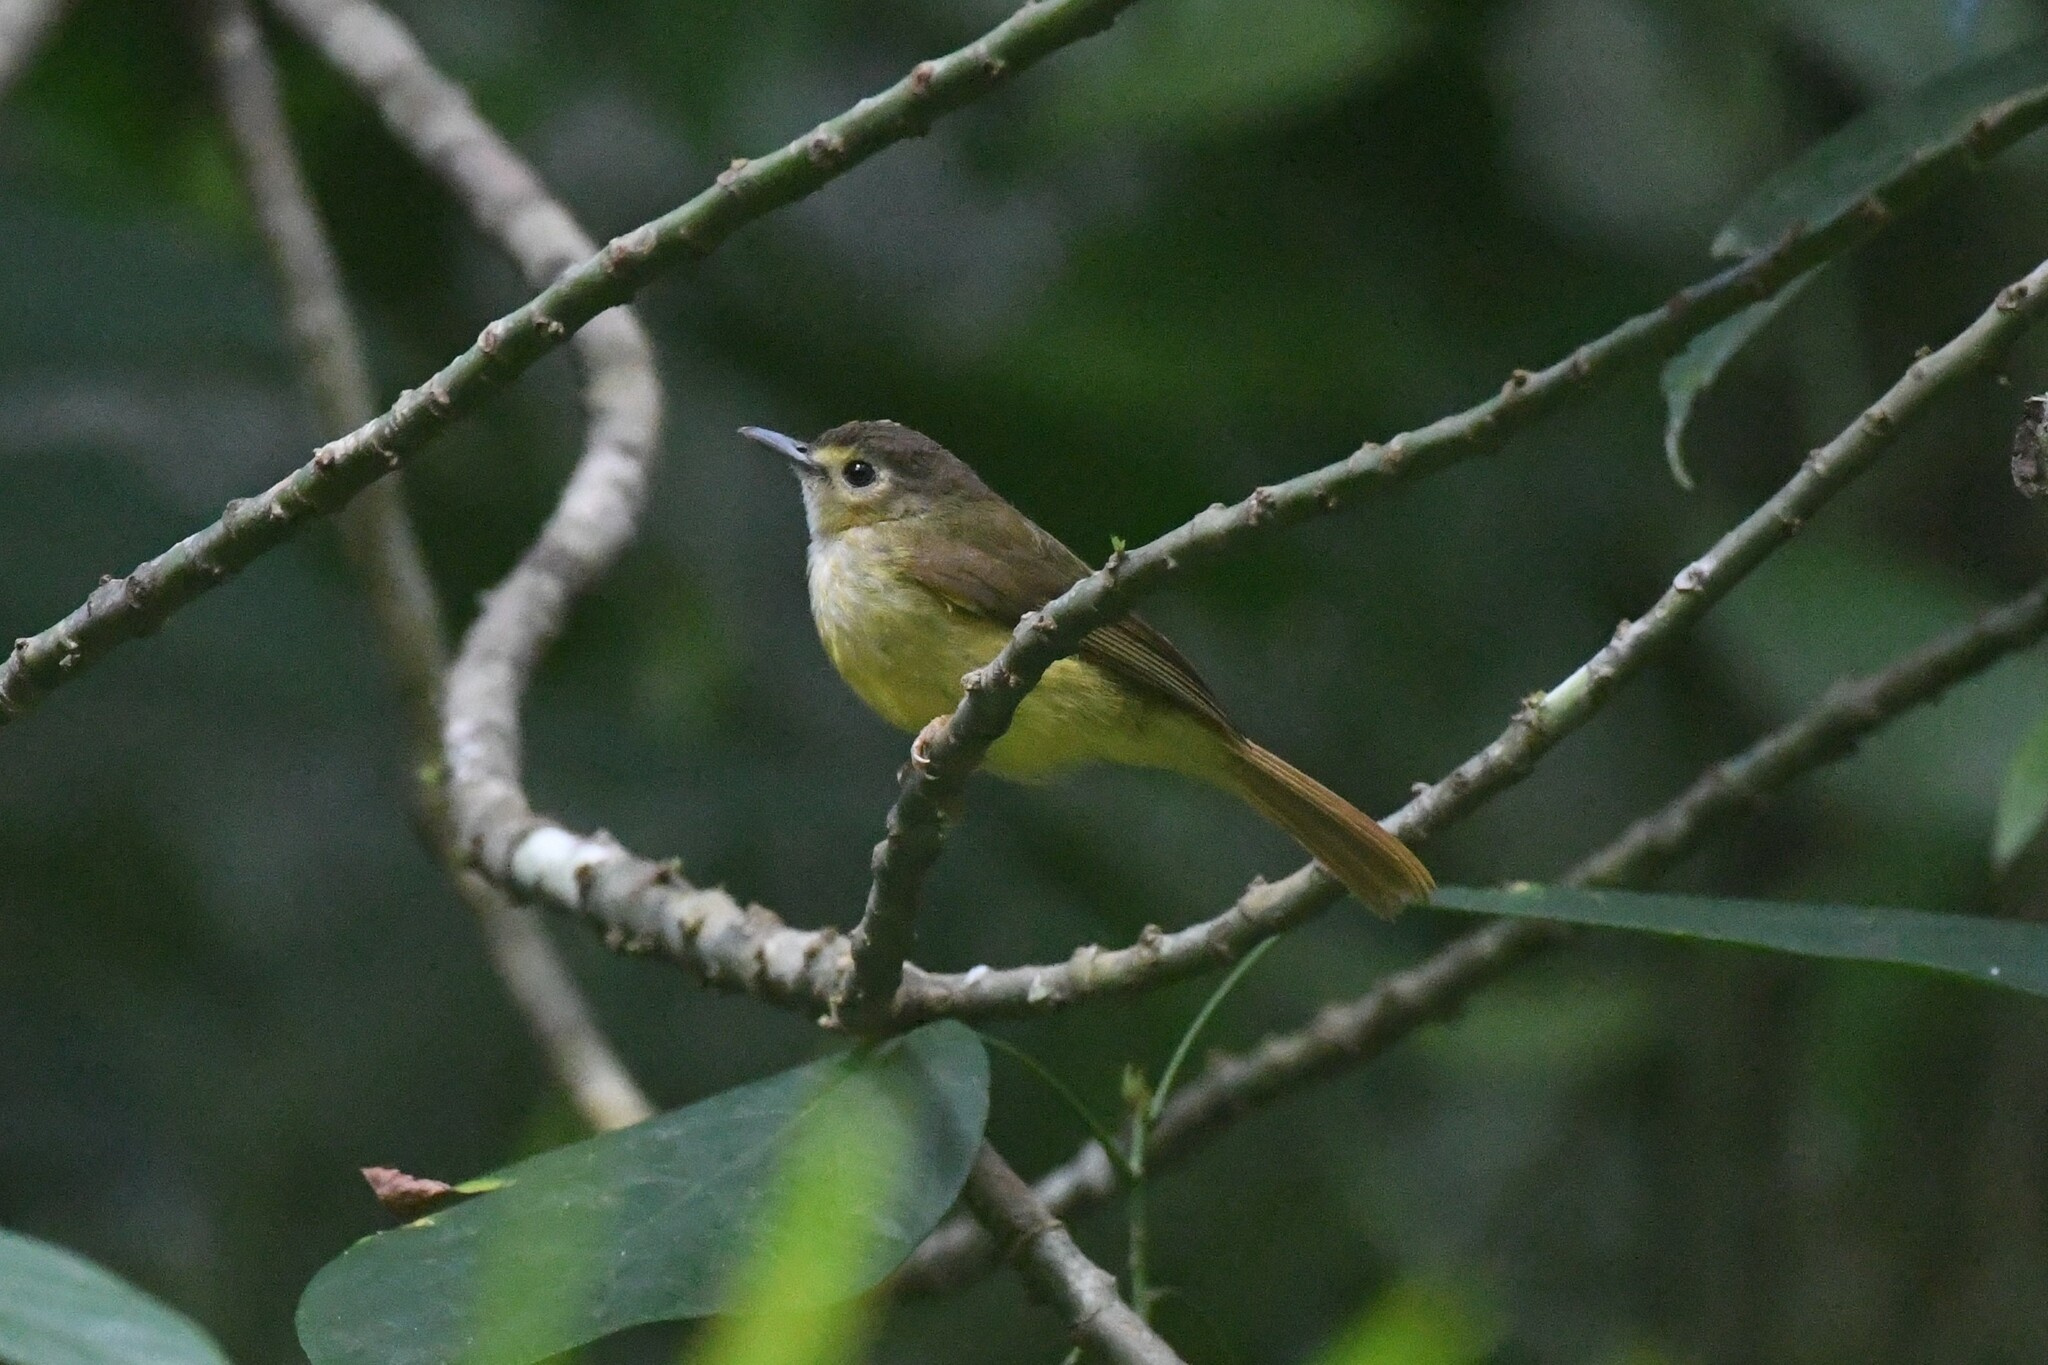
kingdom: Animalia
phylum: Chordata
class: Aves
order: Passeriformes
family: Pycnonotidae
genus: Tricholestes
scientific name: Tricholestes criniger
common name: Hairy-backed bulbul
